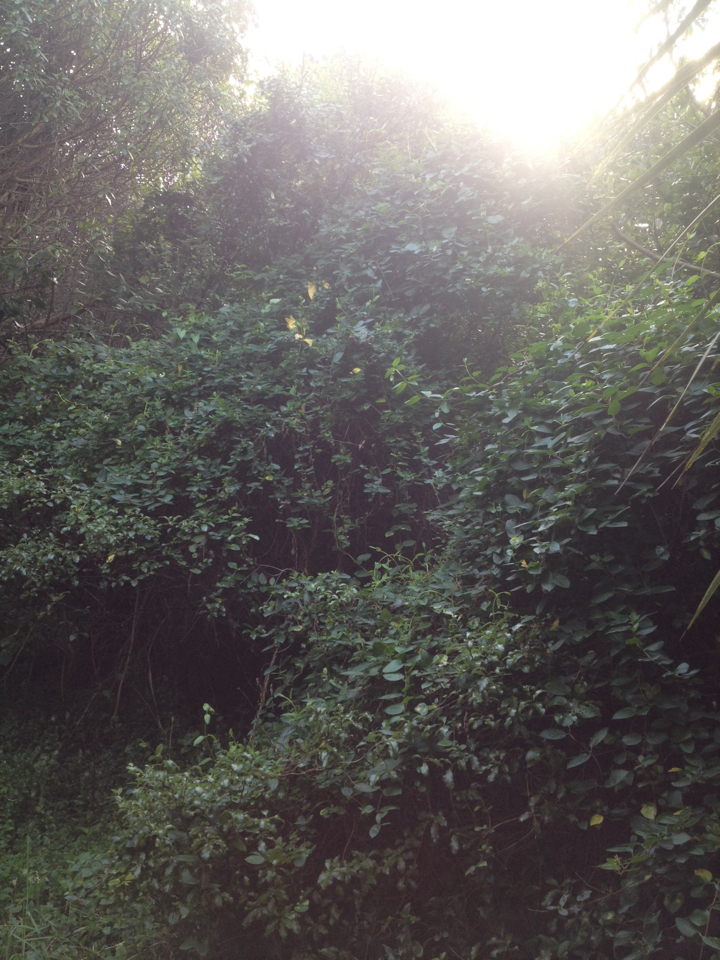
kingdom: Plantae
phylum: Tracheophyta
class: Magnoliopsida
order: Dipsacales
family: Caprifoliaceae
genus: Lonicera
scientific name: Lonicera japonica
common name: Japanese honeysuckle
